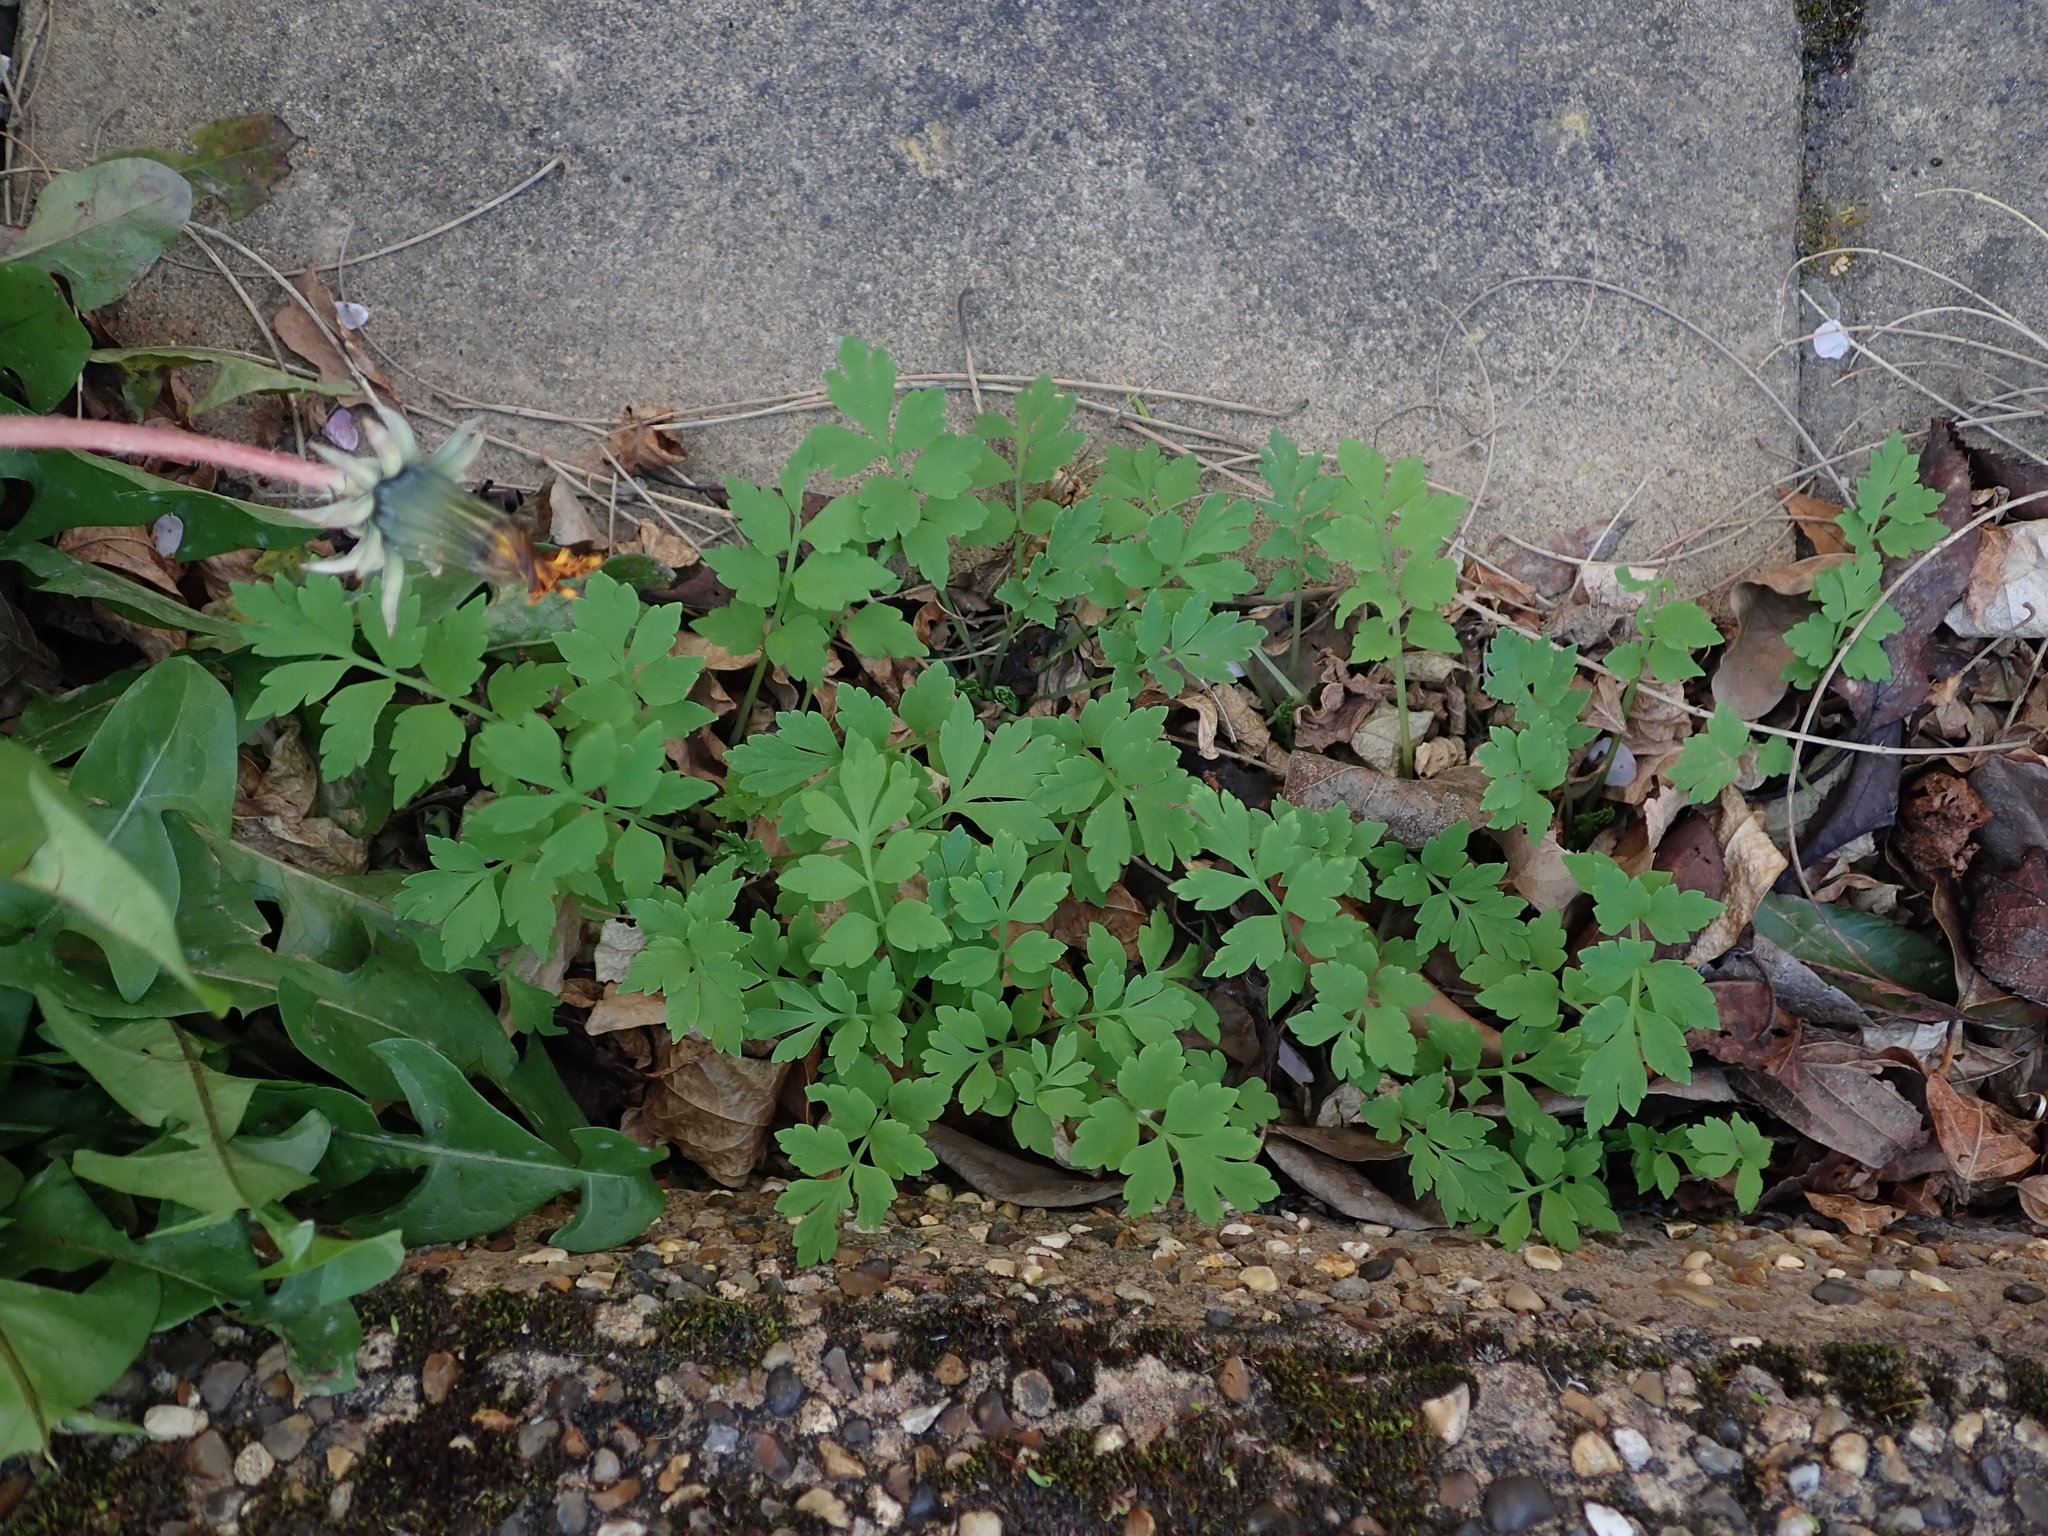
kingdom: Plantae
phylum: Tracheophyta
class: Magnoliopsida
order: Ranunculales
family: Papaveraceae
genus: Papaver
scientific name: Papaver cambricum
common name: Poppy
